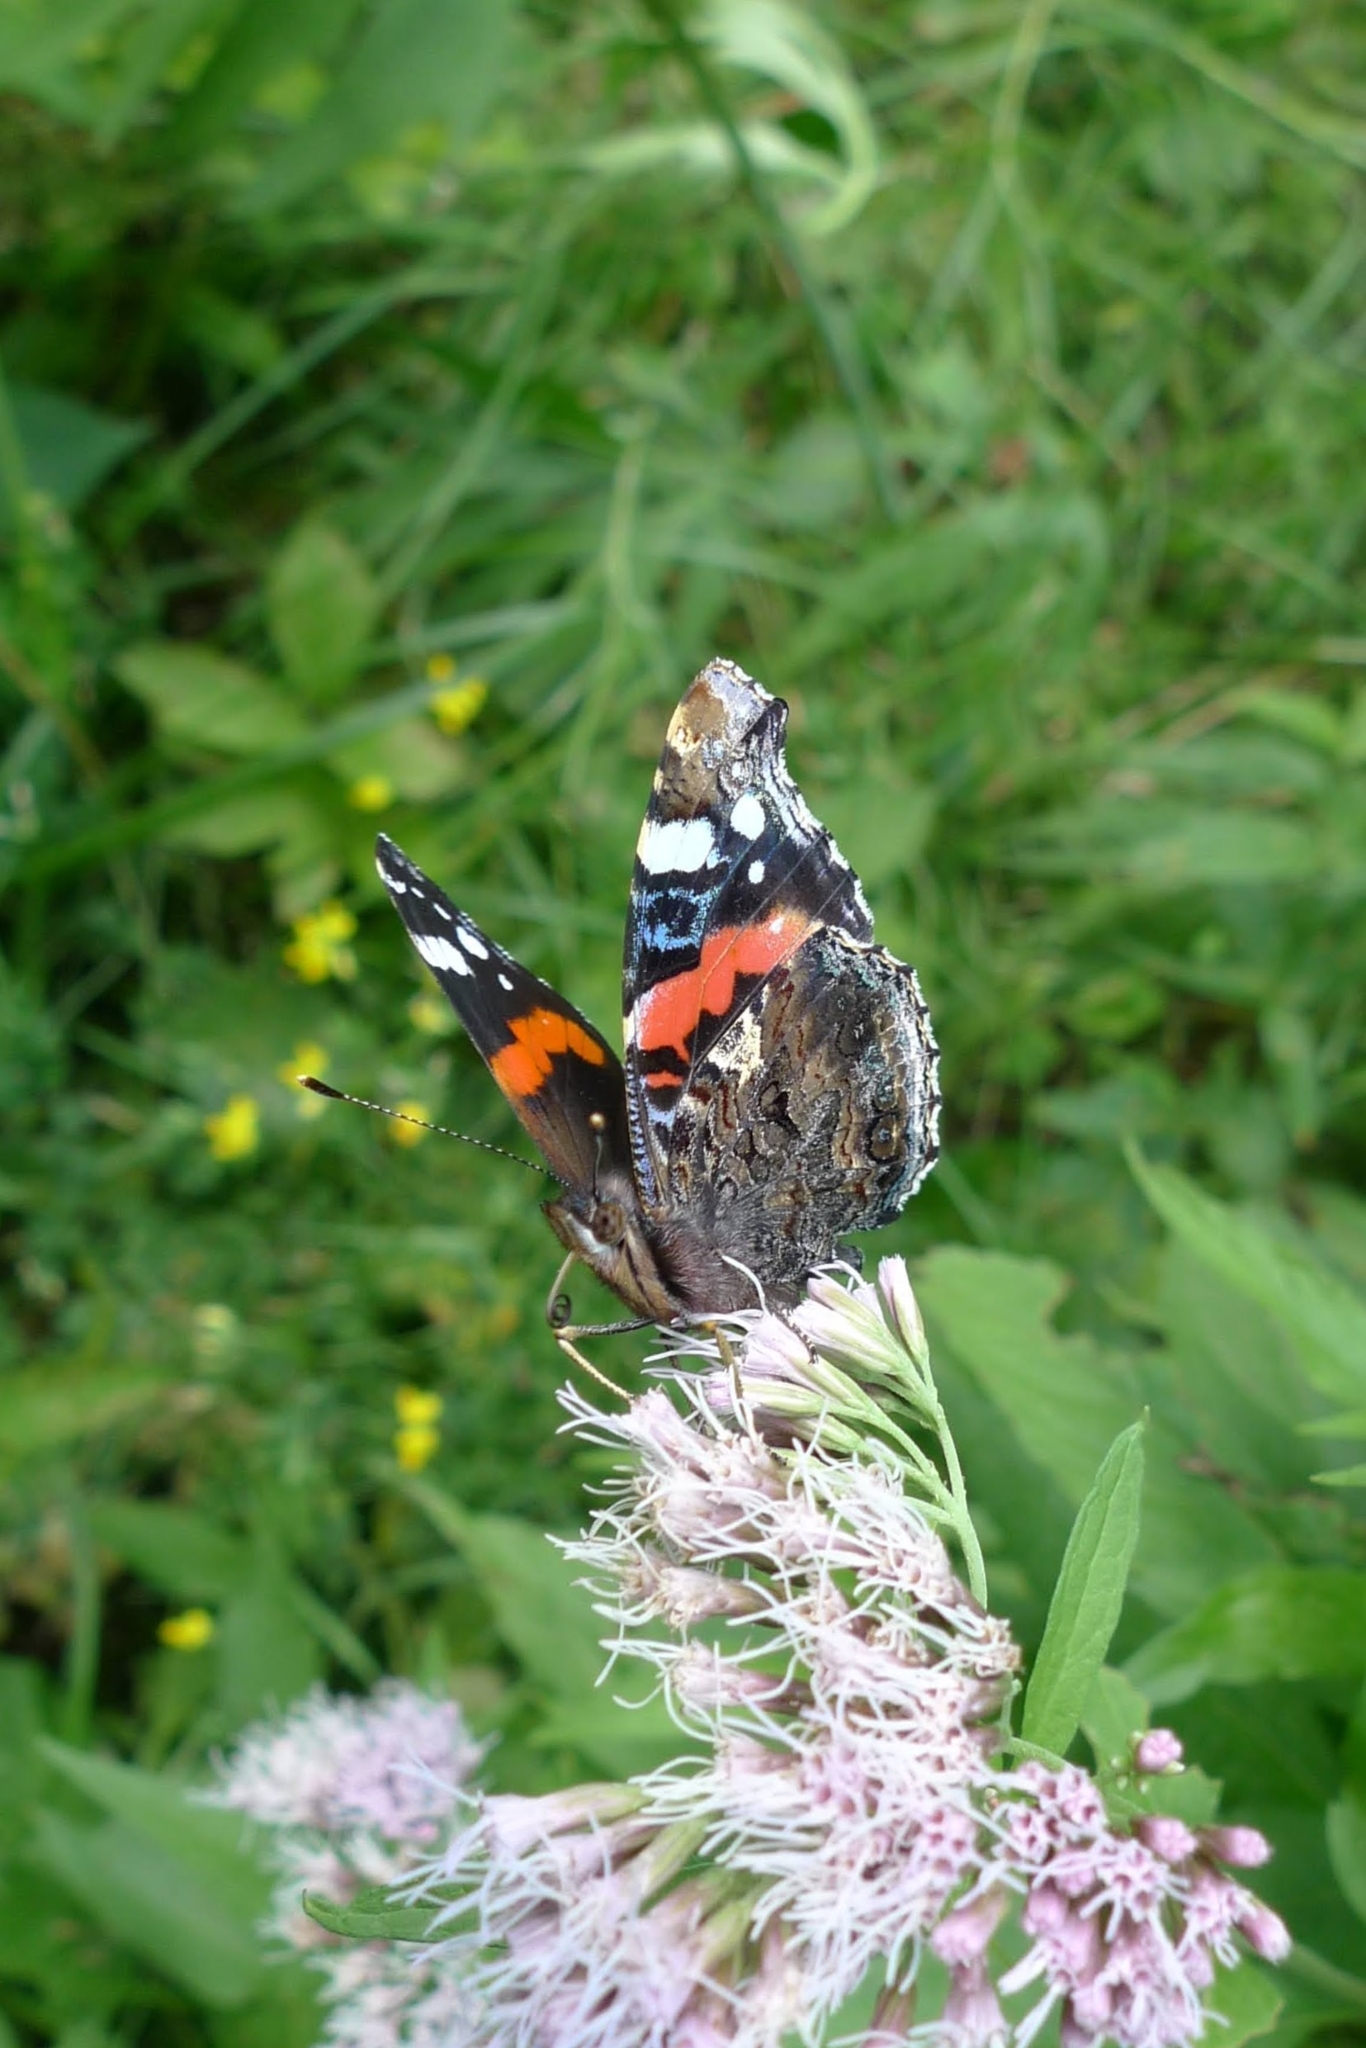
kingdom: Animalia
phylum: Arthropoda
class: Insecta
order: Lepidoptera
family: Nymphalidae
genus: Vanessa
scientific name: Vanessa atalanta
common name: Red admiral
